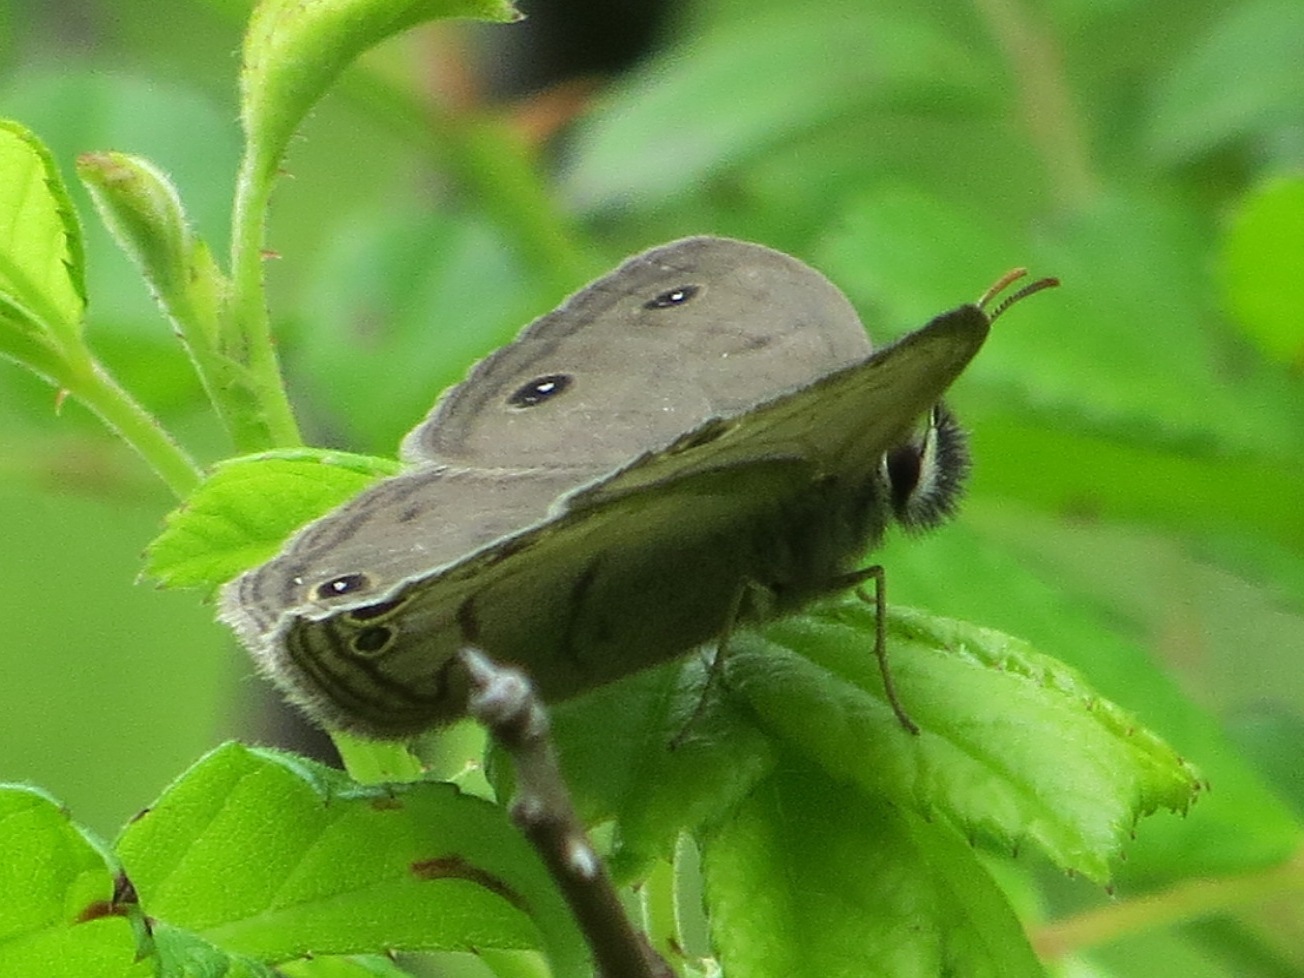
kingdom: Animalia
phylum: Arthropoda
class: Insecta
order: Lepidoptera
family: Nymphalidae
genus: Euptychia
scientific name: Euptychia cymela
